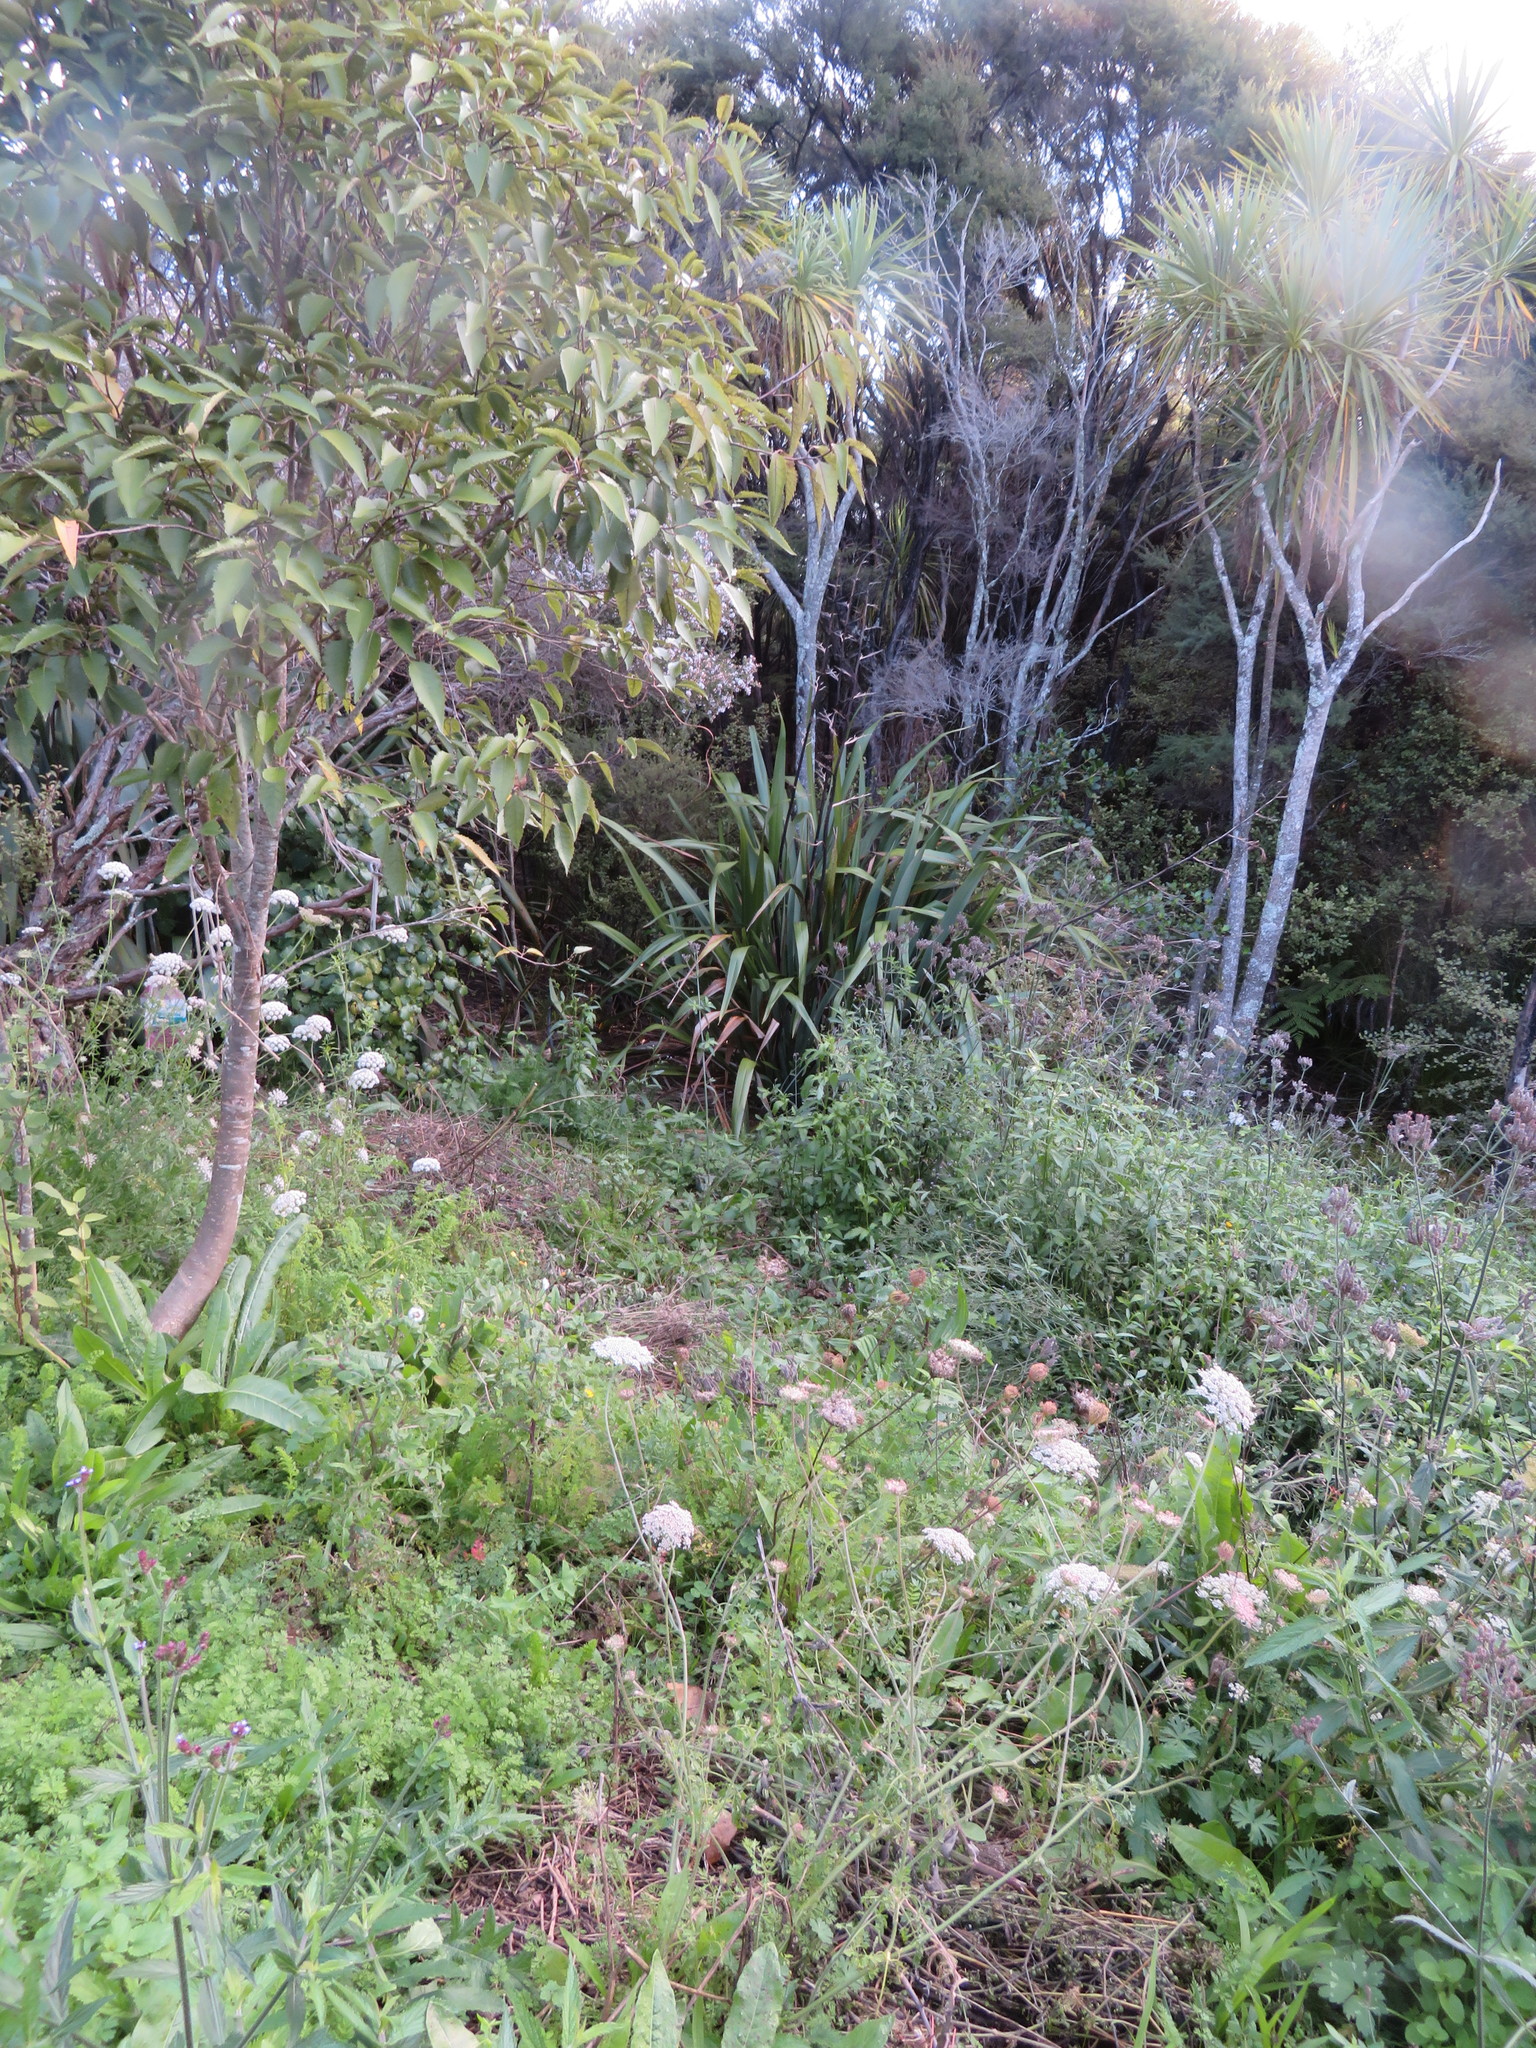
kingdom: Plantae
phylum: Tracheophyta
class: Liliopsida
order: Asparagales
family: Asparagaceae
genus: Cordyline
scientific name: Cordyline australis
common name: Cabbage-palm
